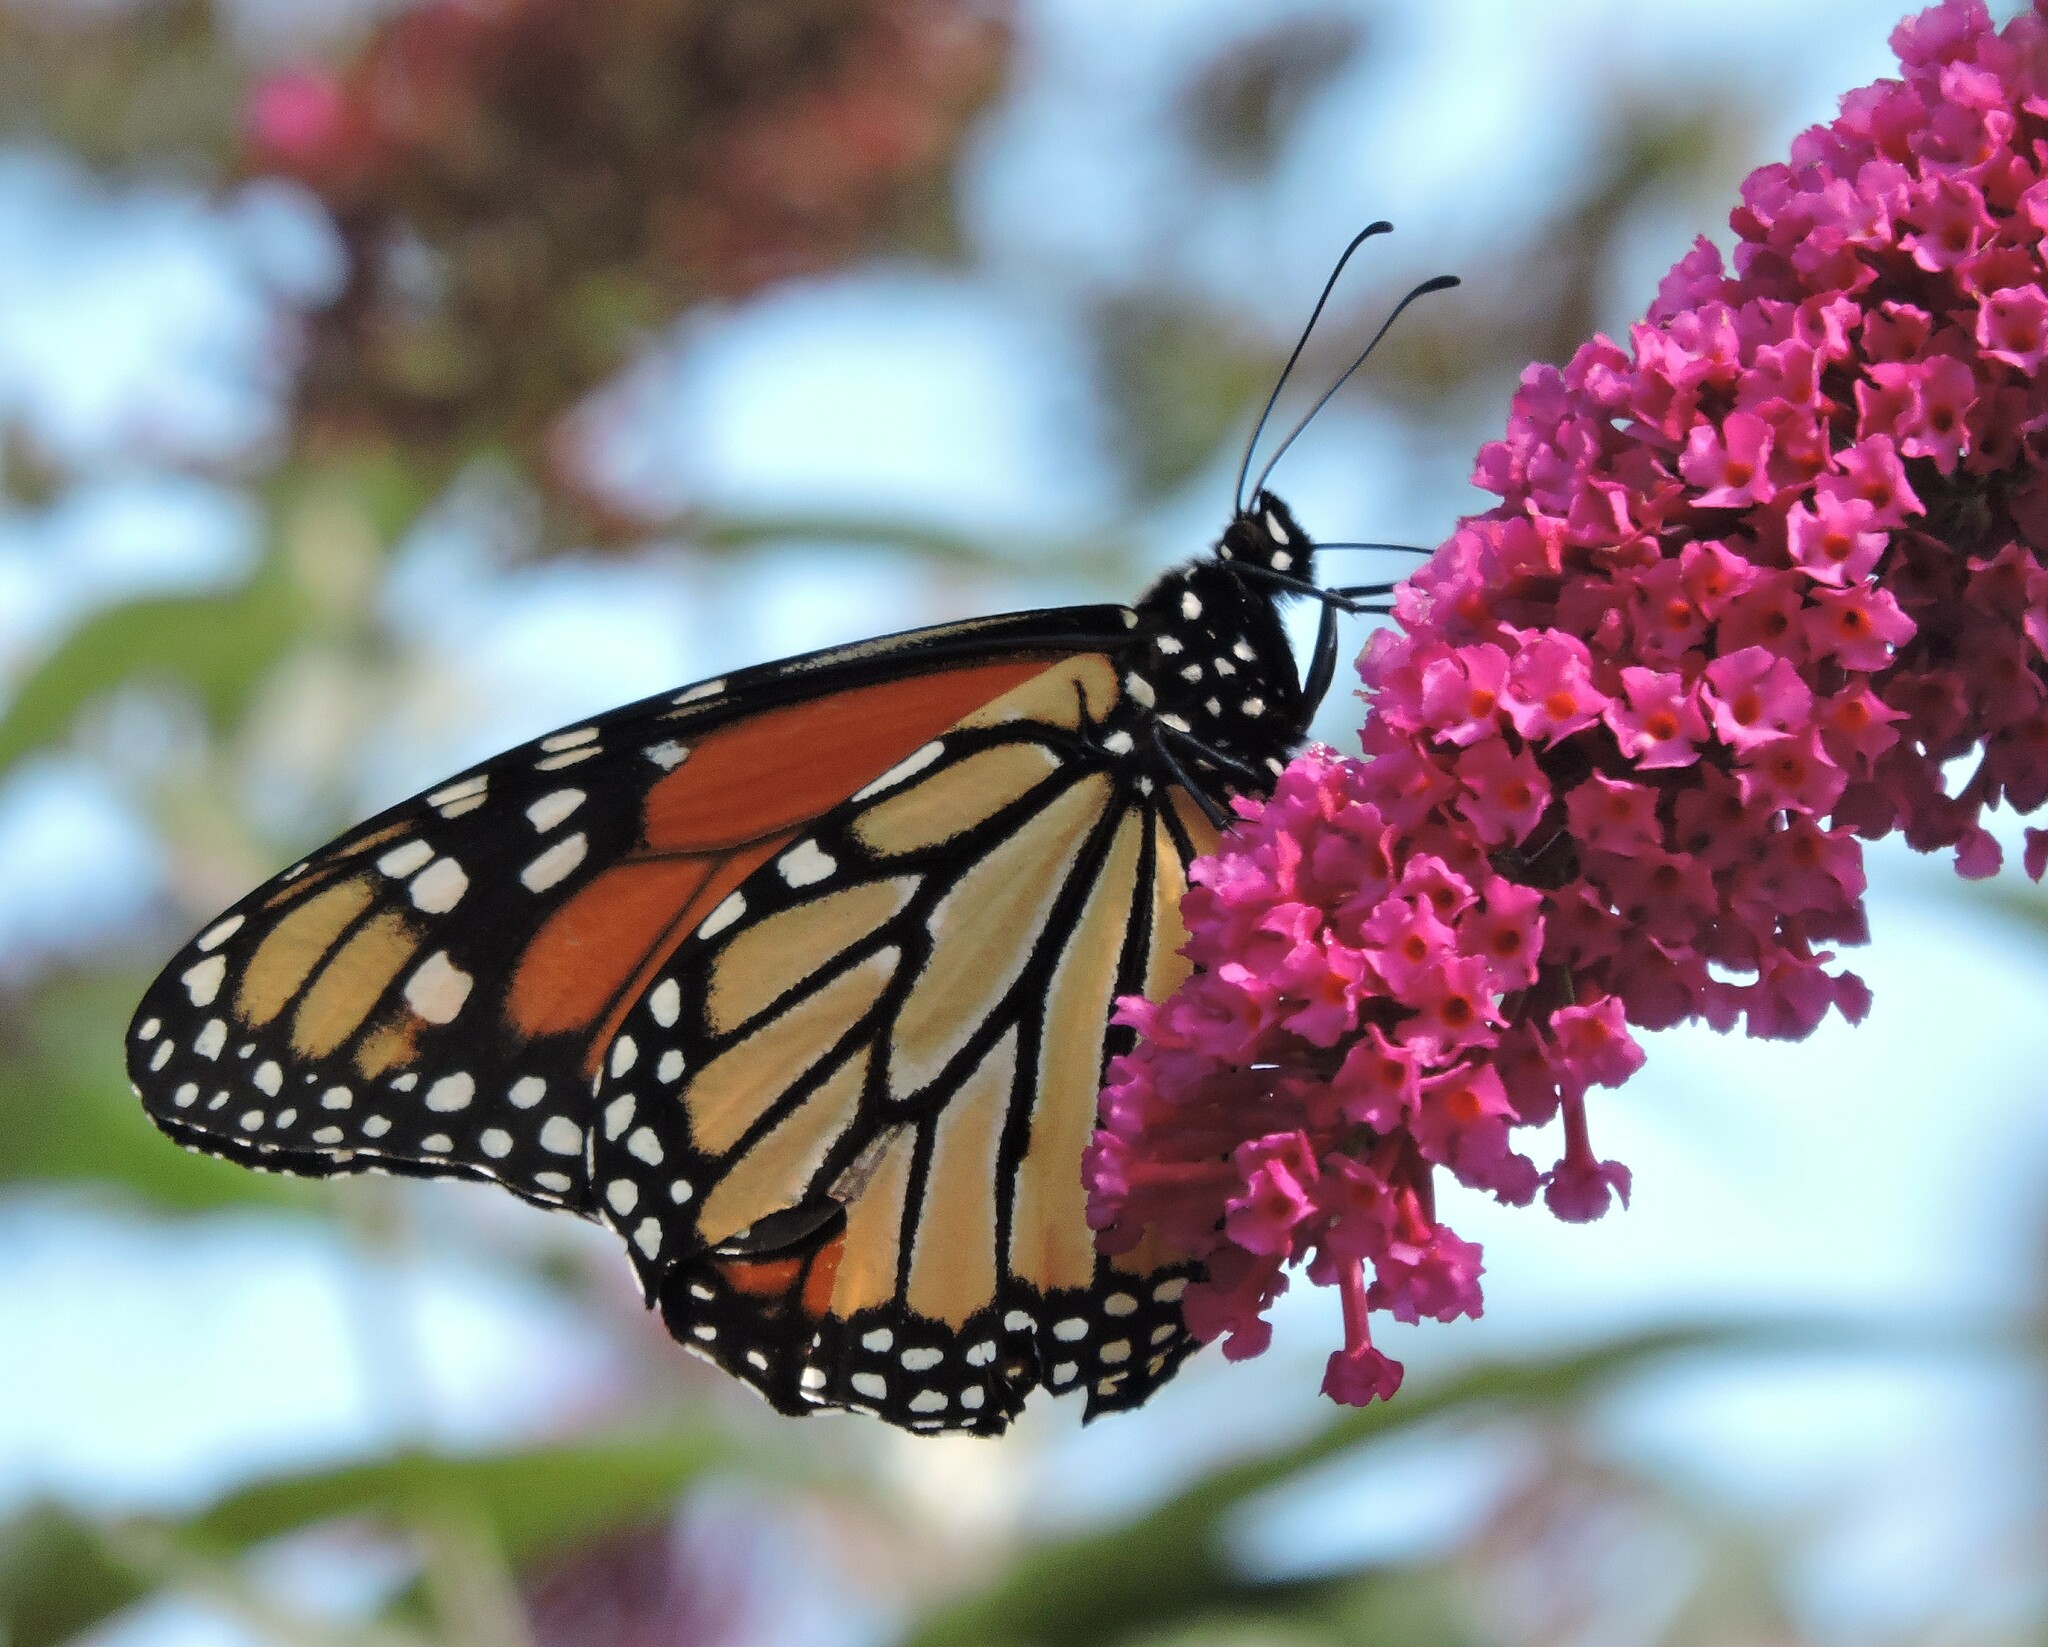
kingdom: Animalia
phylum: Arthropoda
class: Insecta
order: Lepidoptera
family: Nymphalidae
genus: Danaus
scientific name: Danaus plexippus
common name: Monarch
